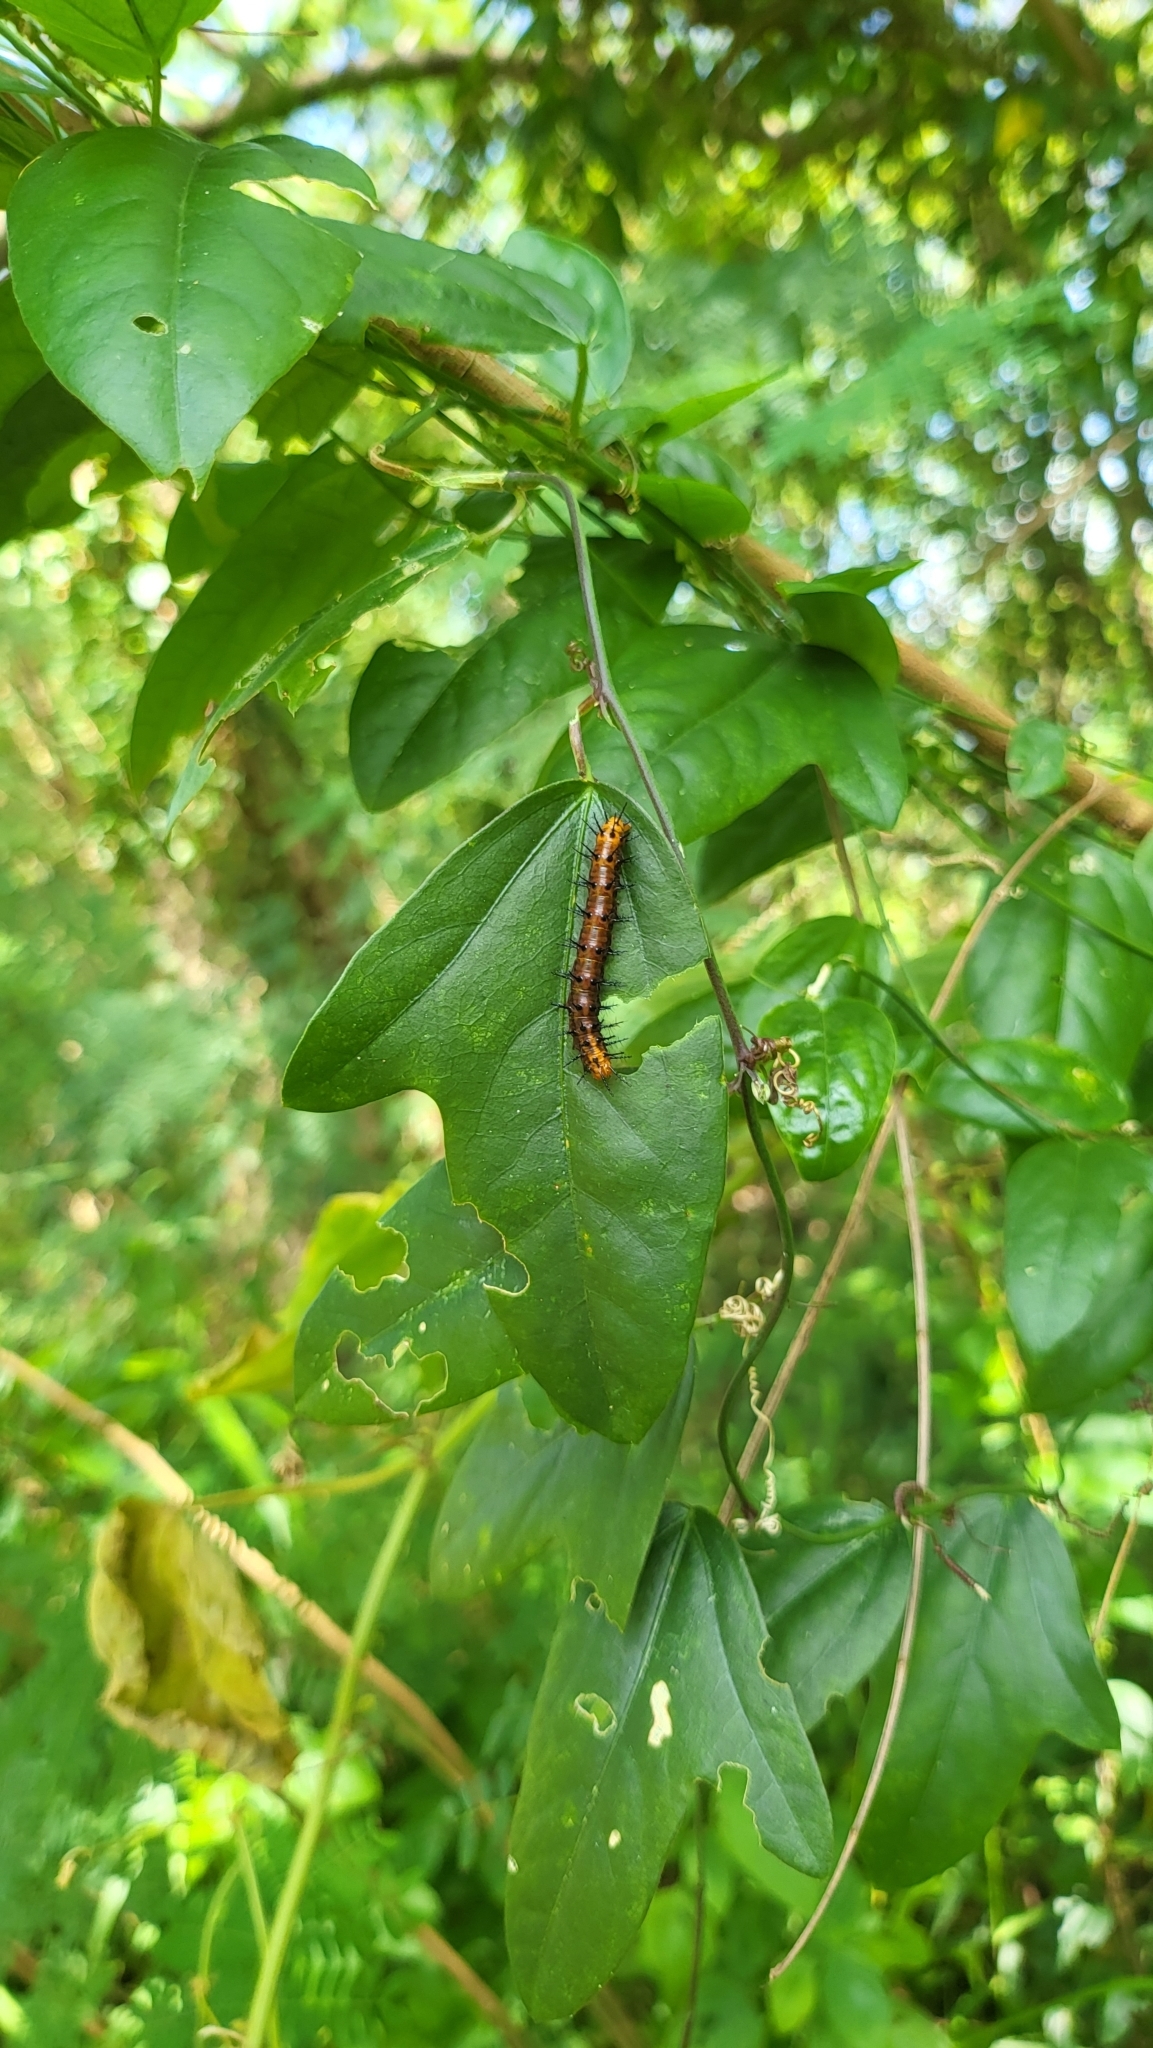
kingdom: Animalia
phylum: Arthropoda
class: Insecta
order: Lepidoptera
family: Nymphalidae
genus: Acraea
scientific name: Acraea terpsicore
